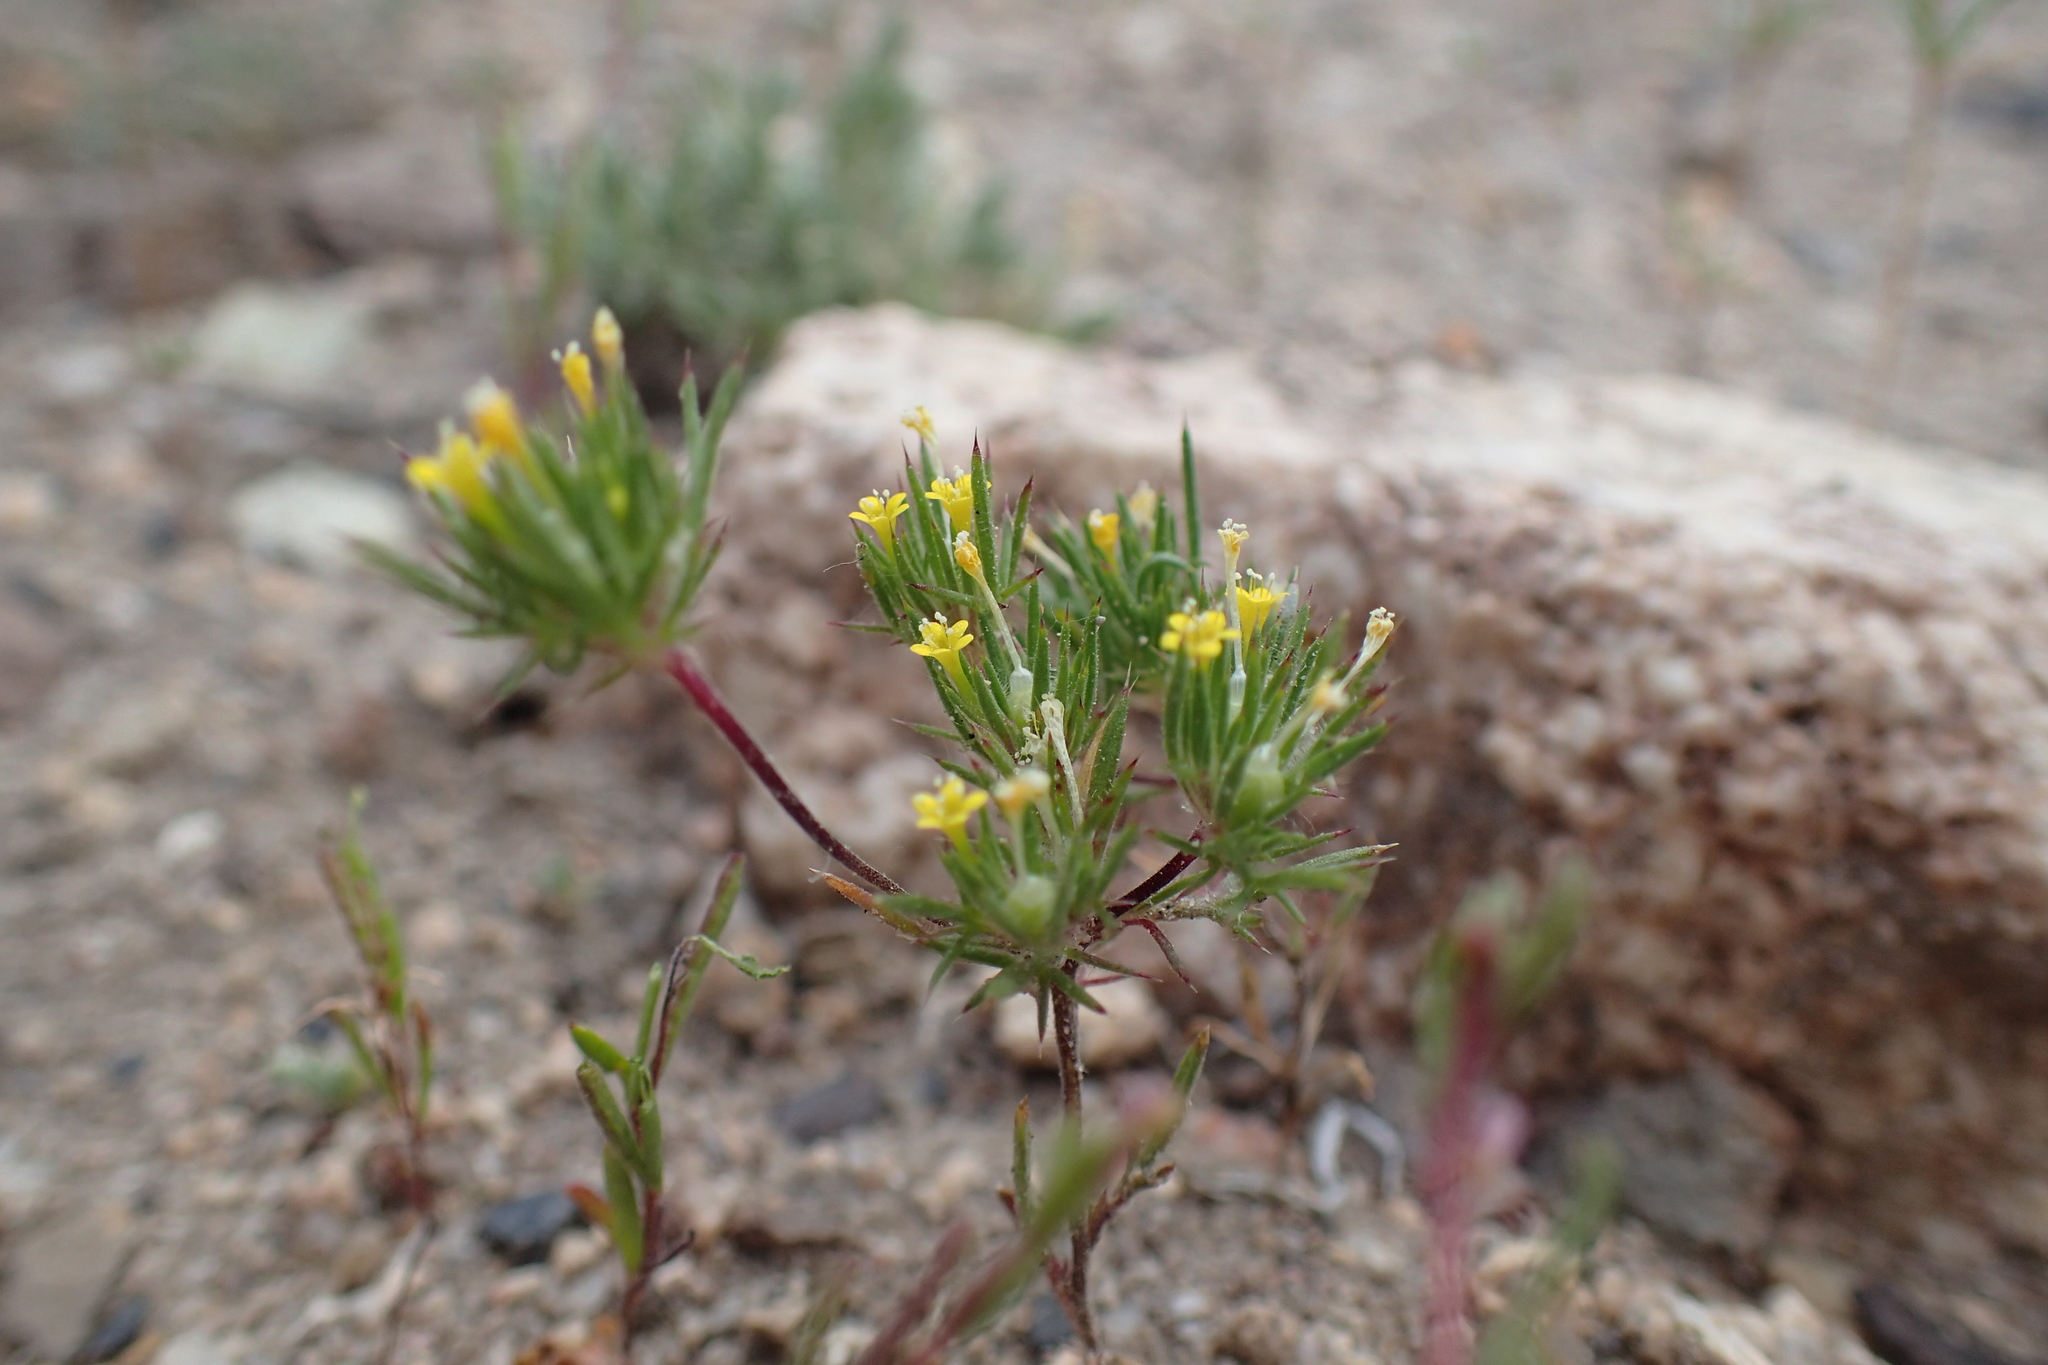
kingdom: Plantae
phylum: Tracheophyta
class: Magnoliopsida
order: Ericales
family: Polemoniaceae
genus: Navarretia
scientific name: Navarretia breweri
